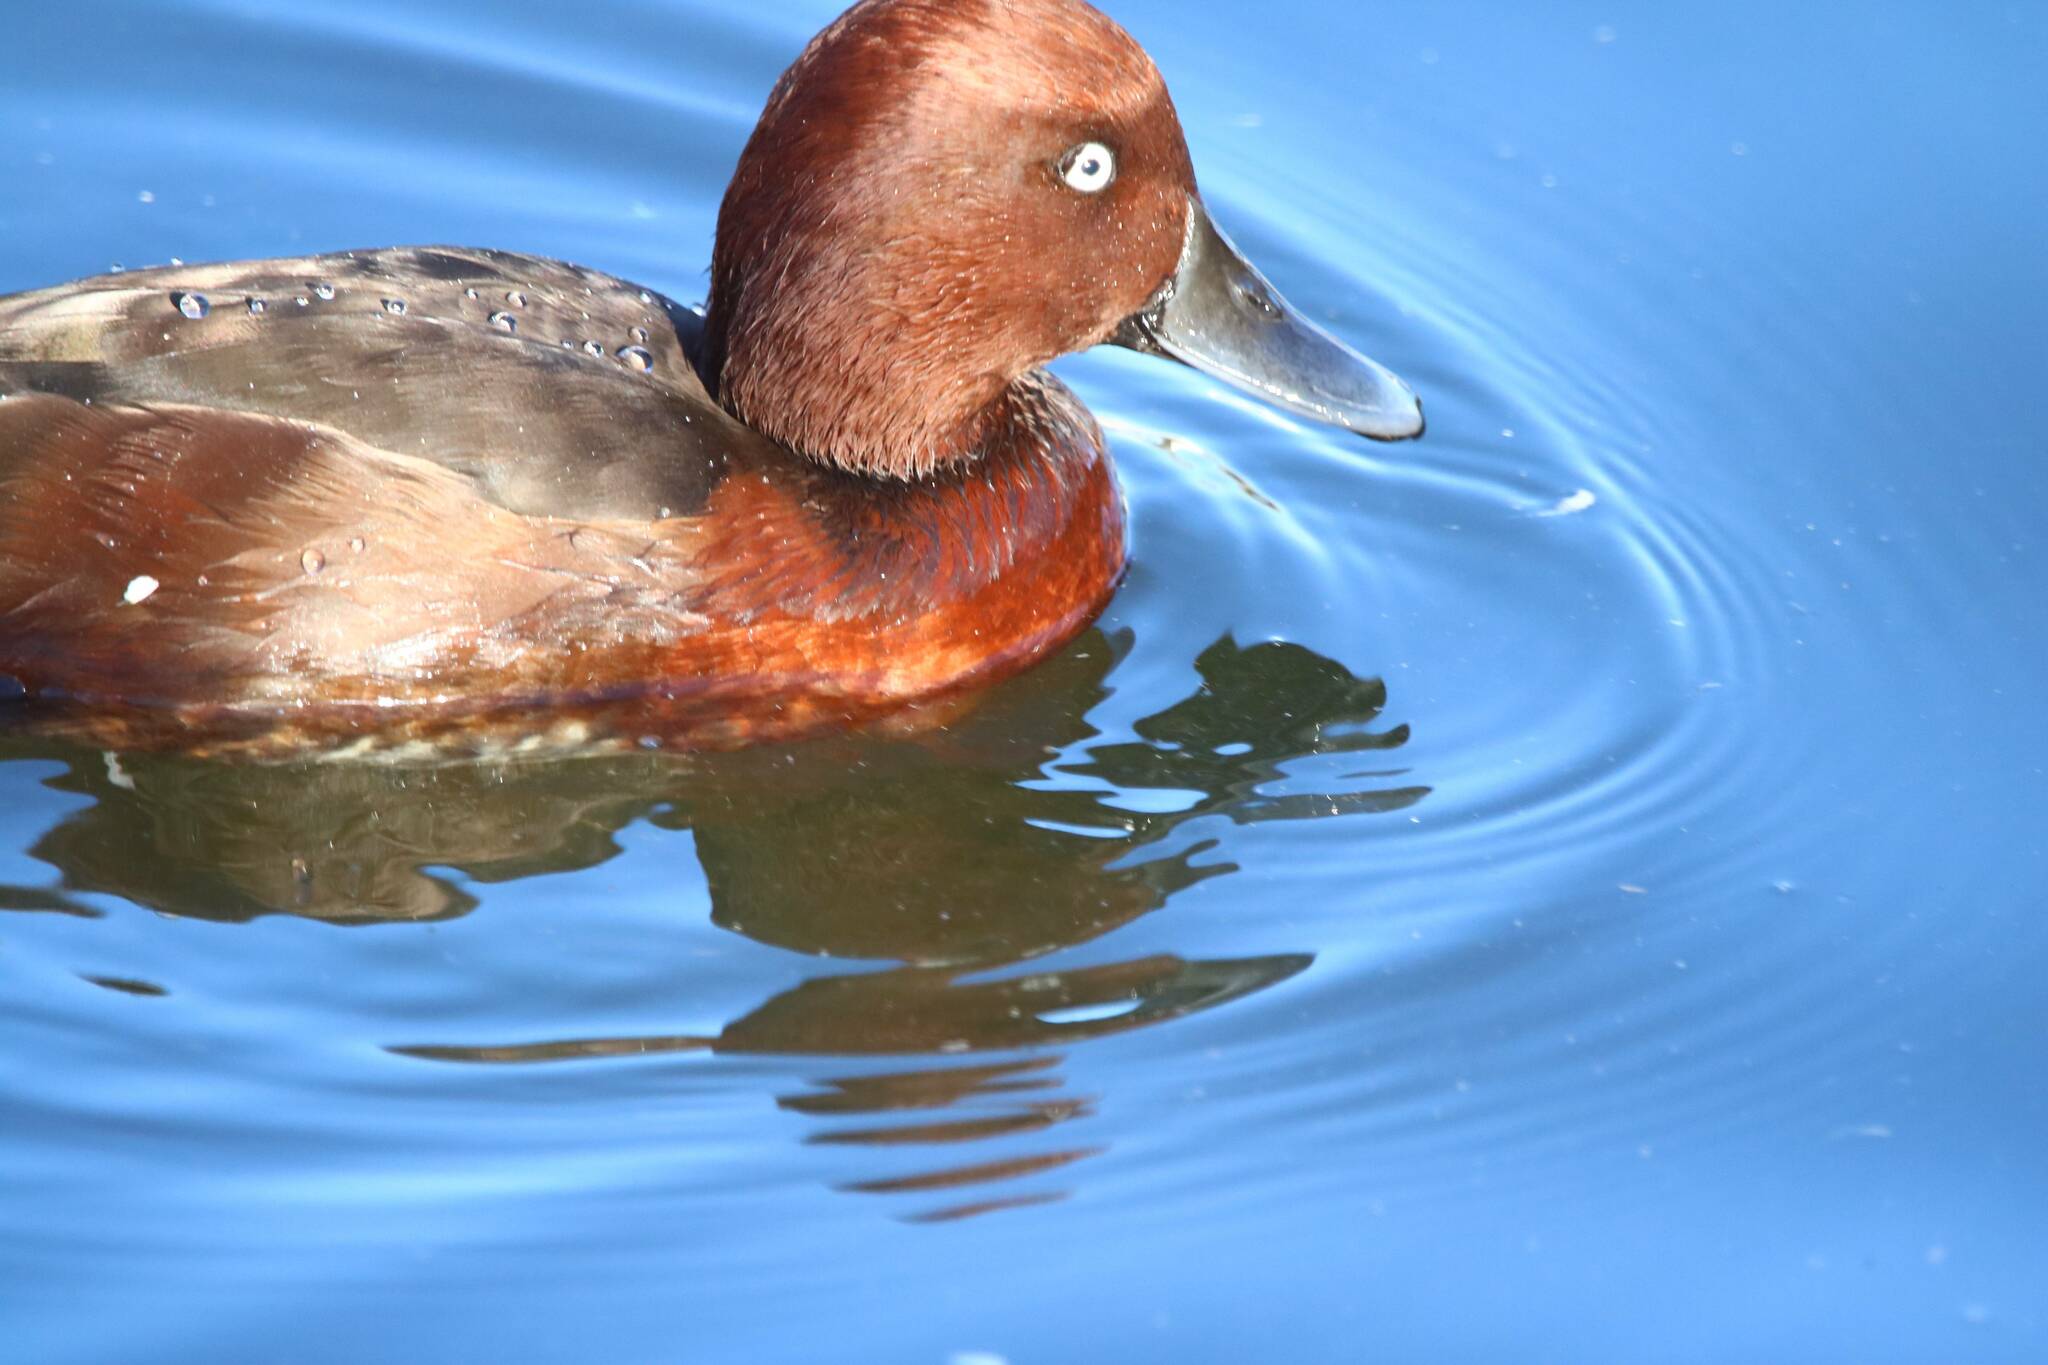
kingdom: Animalia
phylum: Chordata
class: Aves
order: Anseriformes
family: Anatidae
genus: Aythya
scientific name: Aythya nyroca
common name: Ferruginous duck
